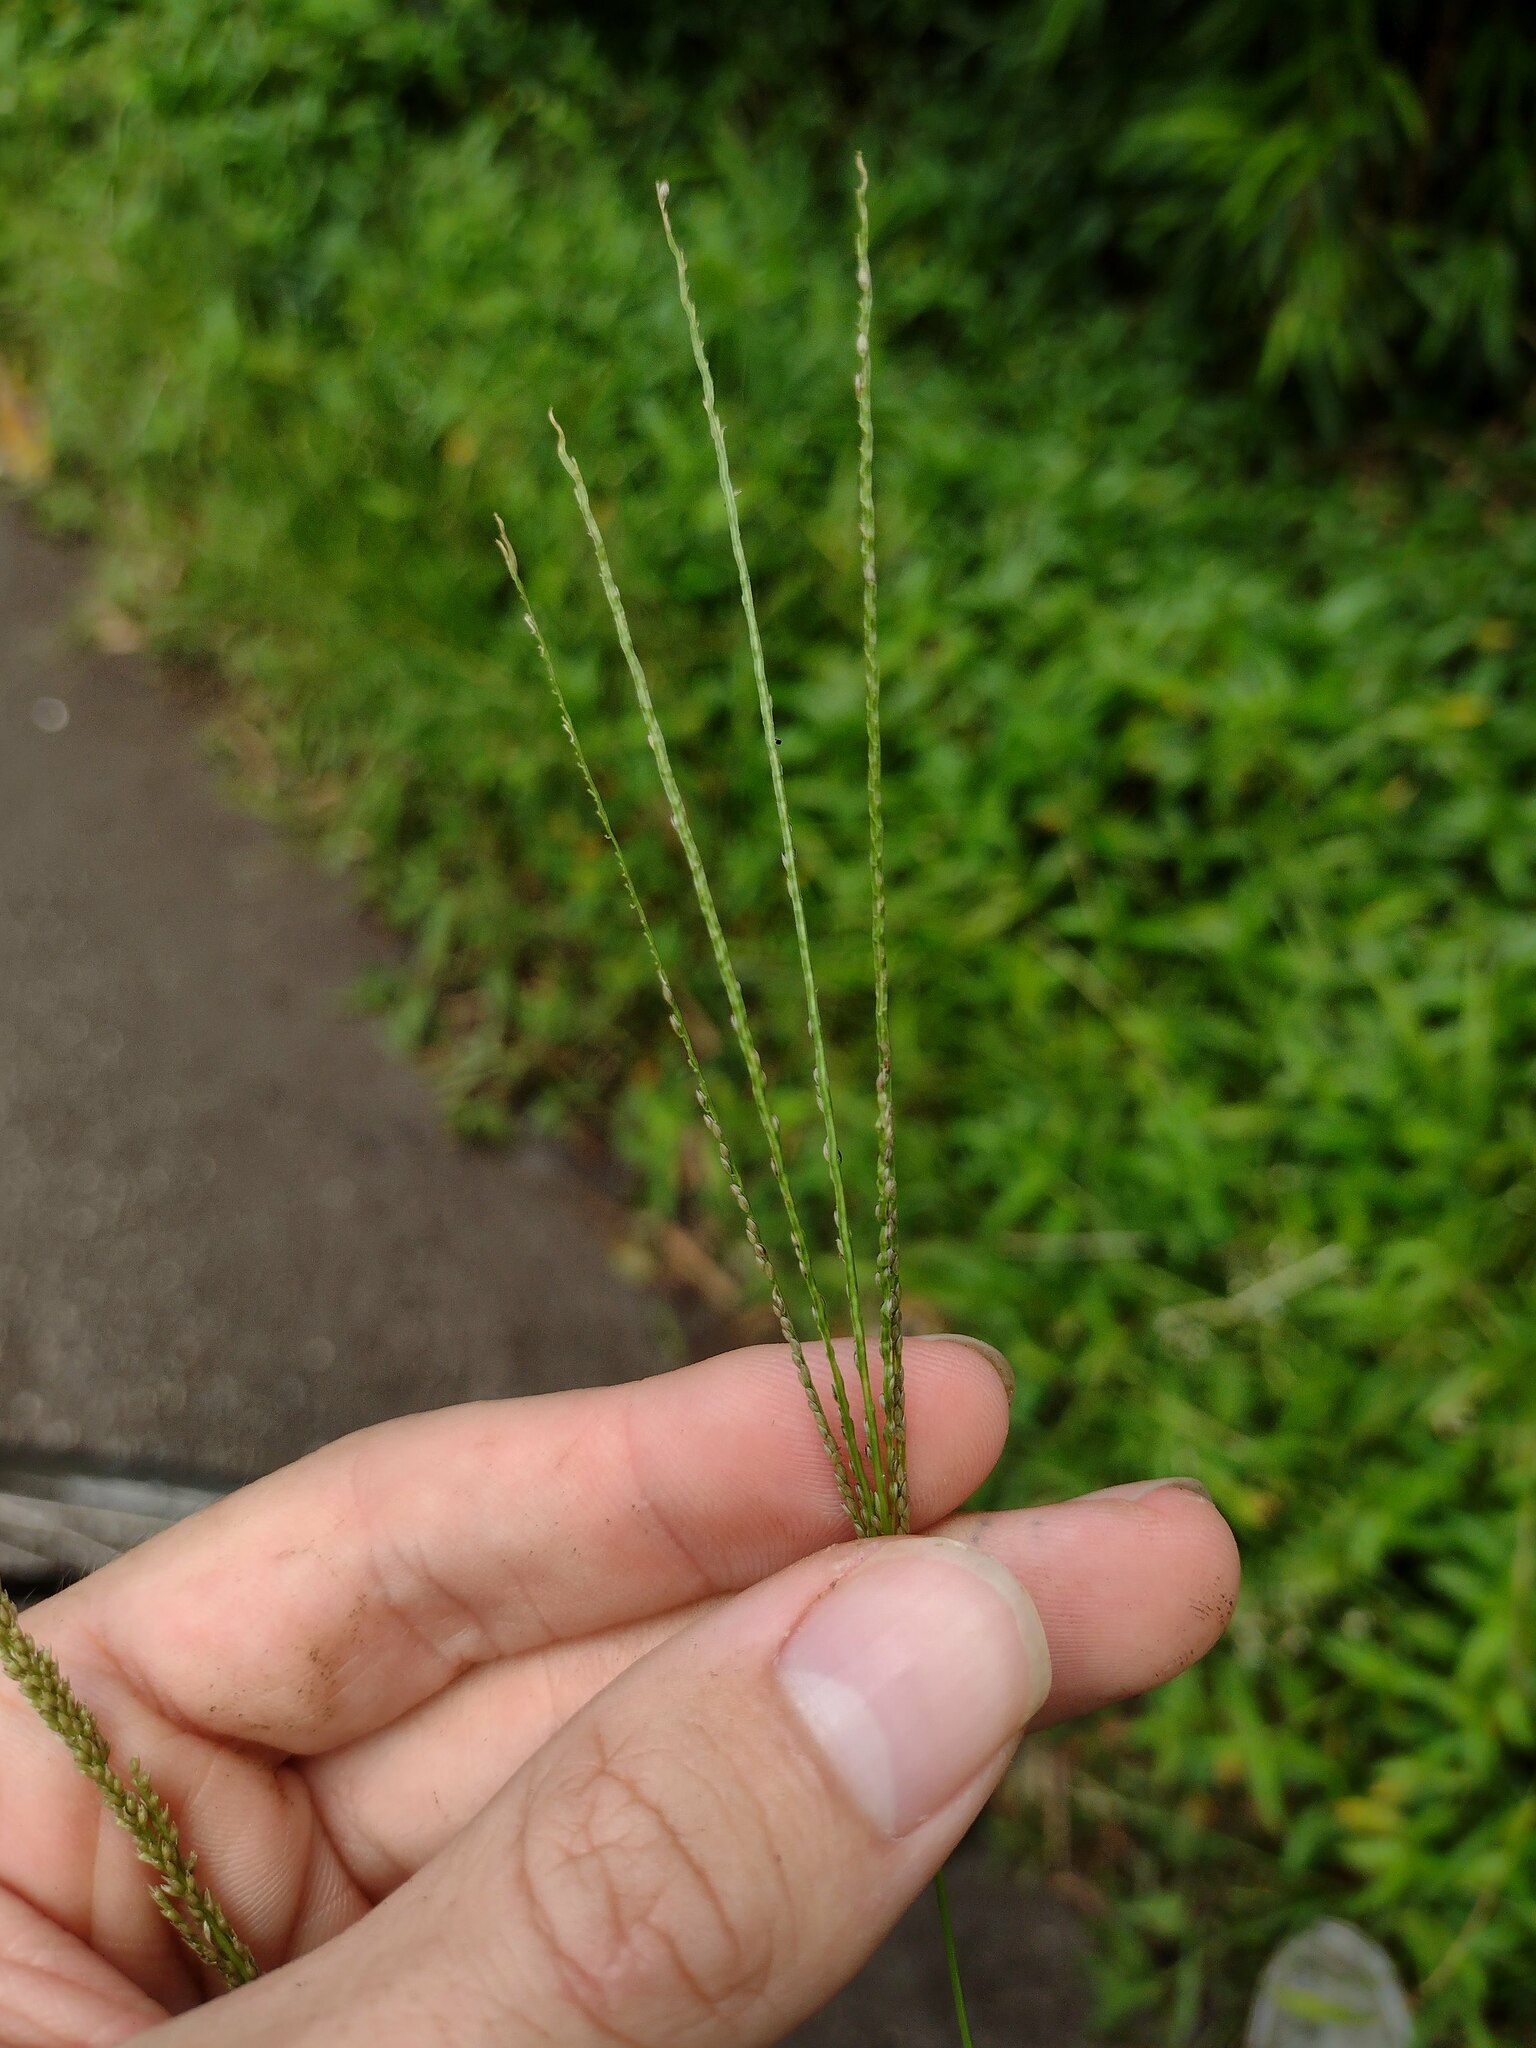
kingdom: Plantae
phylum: Tracheophyta
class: Liliopsida
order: Poales
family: Poaceae
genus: Digitaria
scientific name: Digitaria violascens
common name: Violet crabgrass
